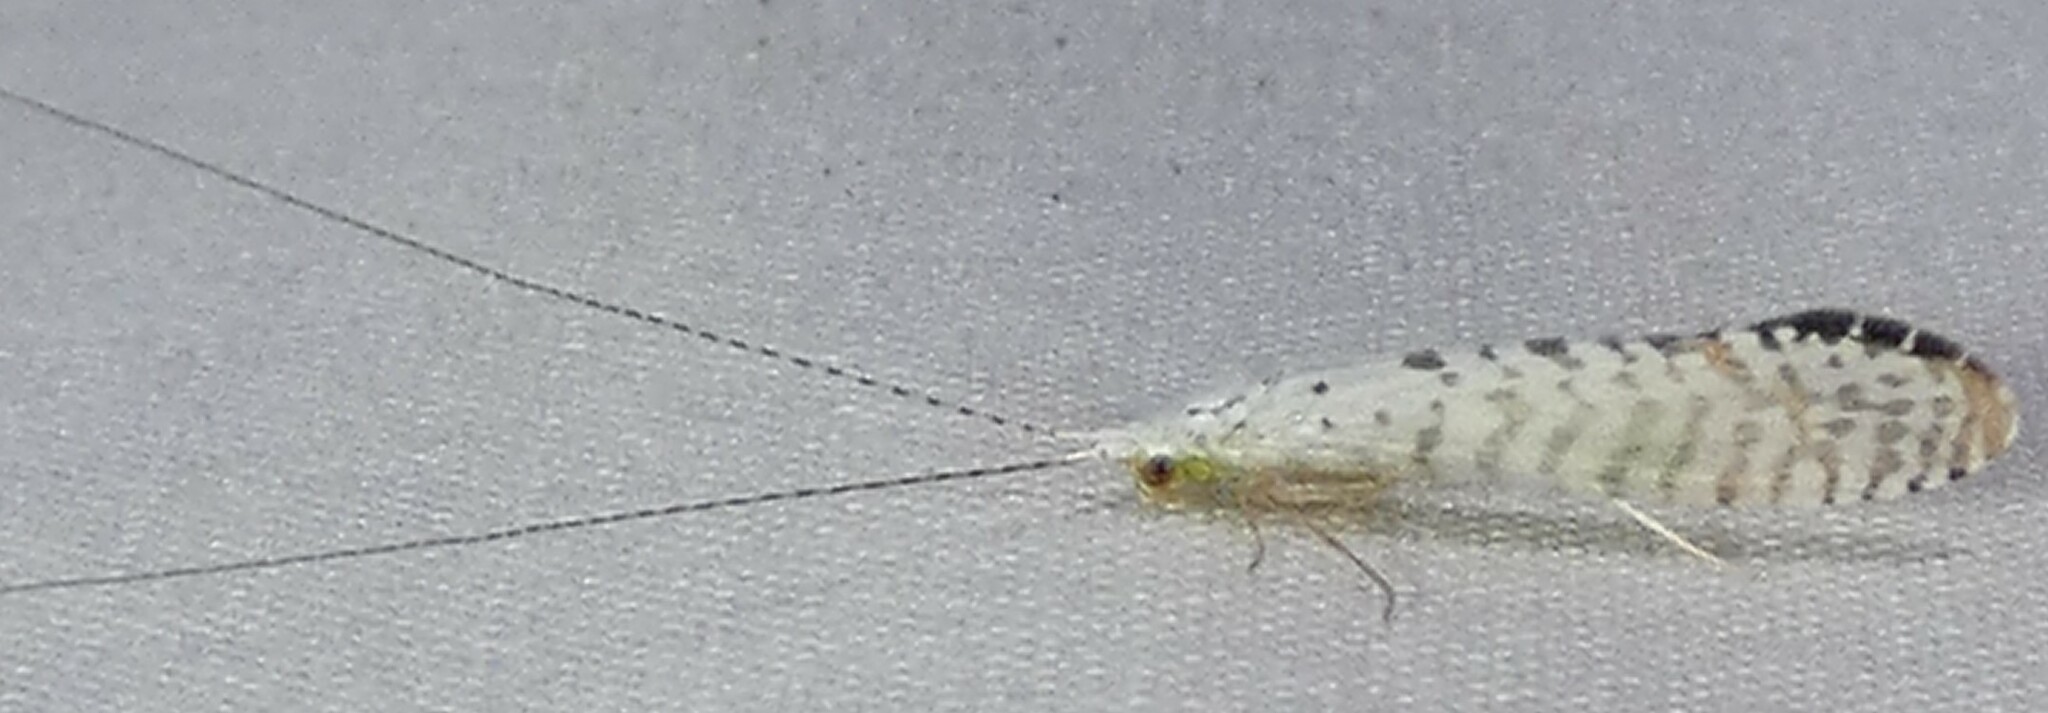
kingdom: Animalia
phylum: Arthropoda
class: Insecta
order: Trichoptera
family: Leptoceridae
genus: Nectopsyche
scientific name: Nectopsyche candida
